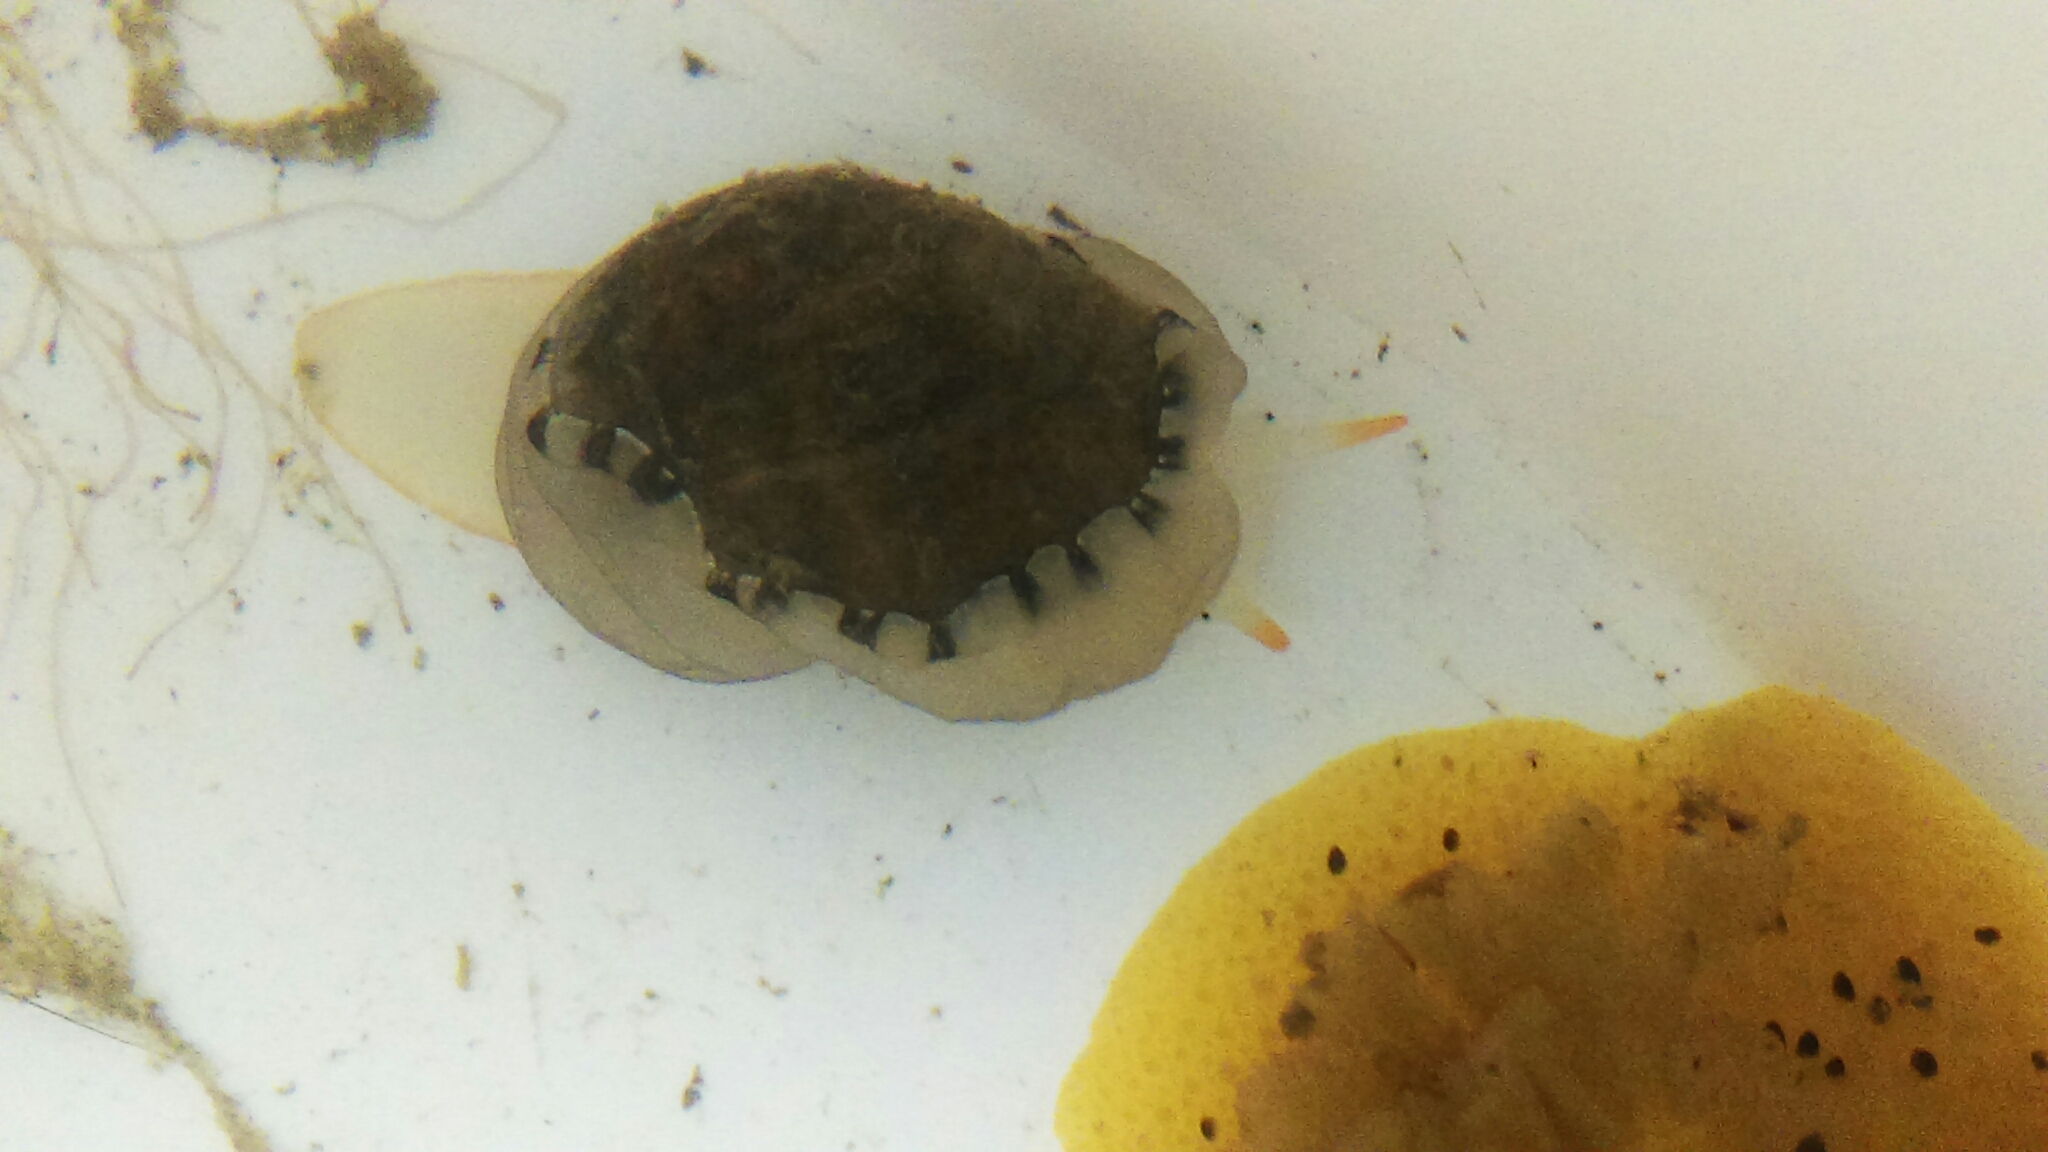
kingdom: Animalia
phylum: Mollusca
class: Gastropoda
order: Littorinimorpha
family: Velutinidae
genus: Limneria
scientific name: Limneria prolongata
